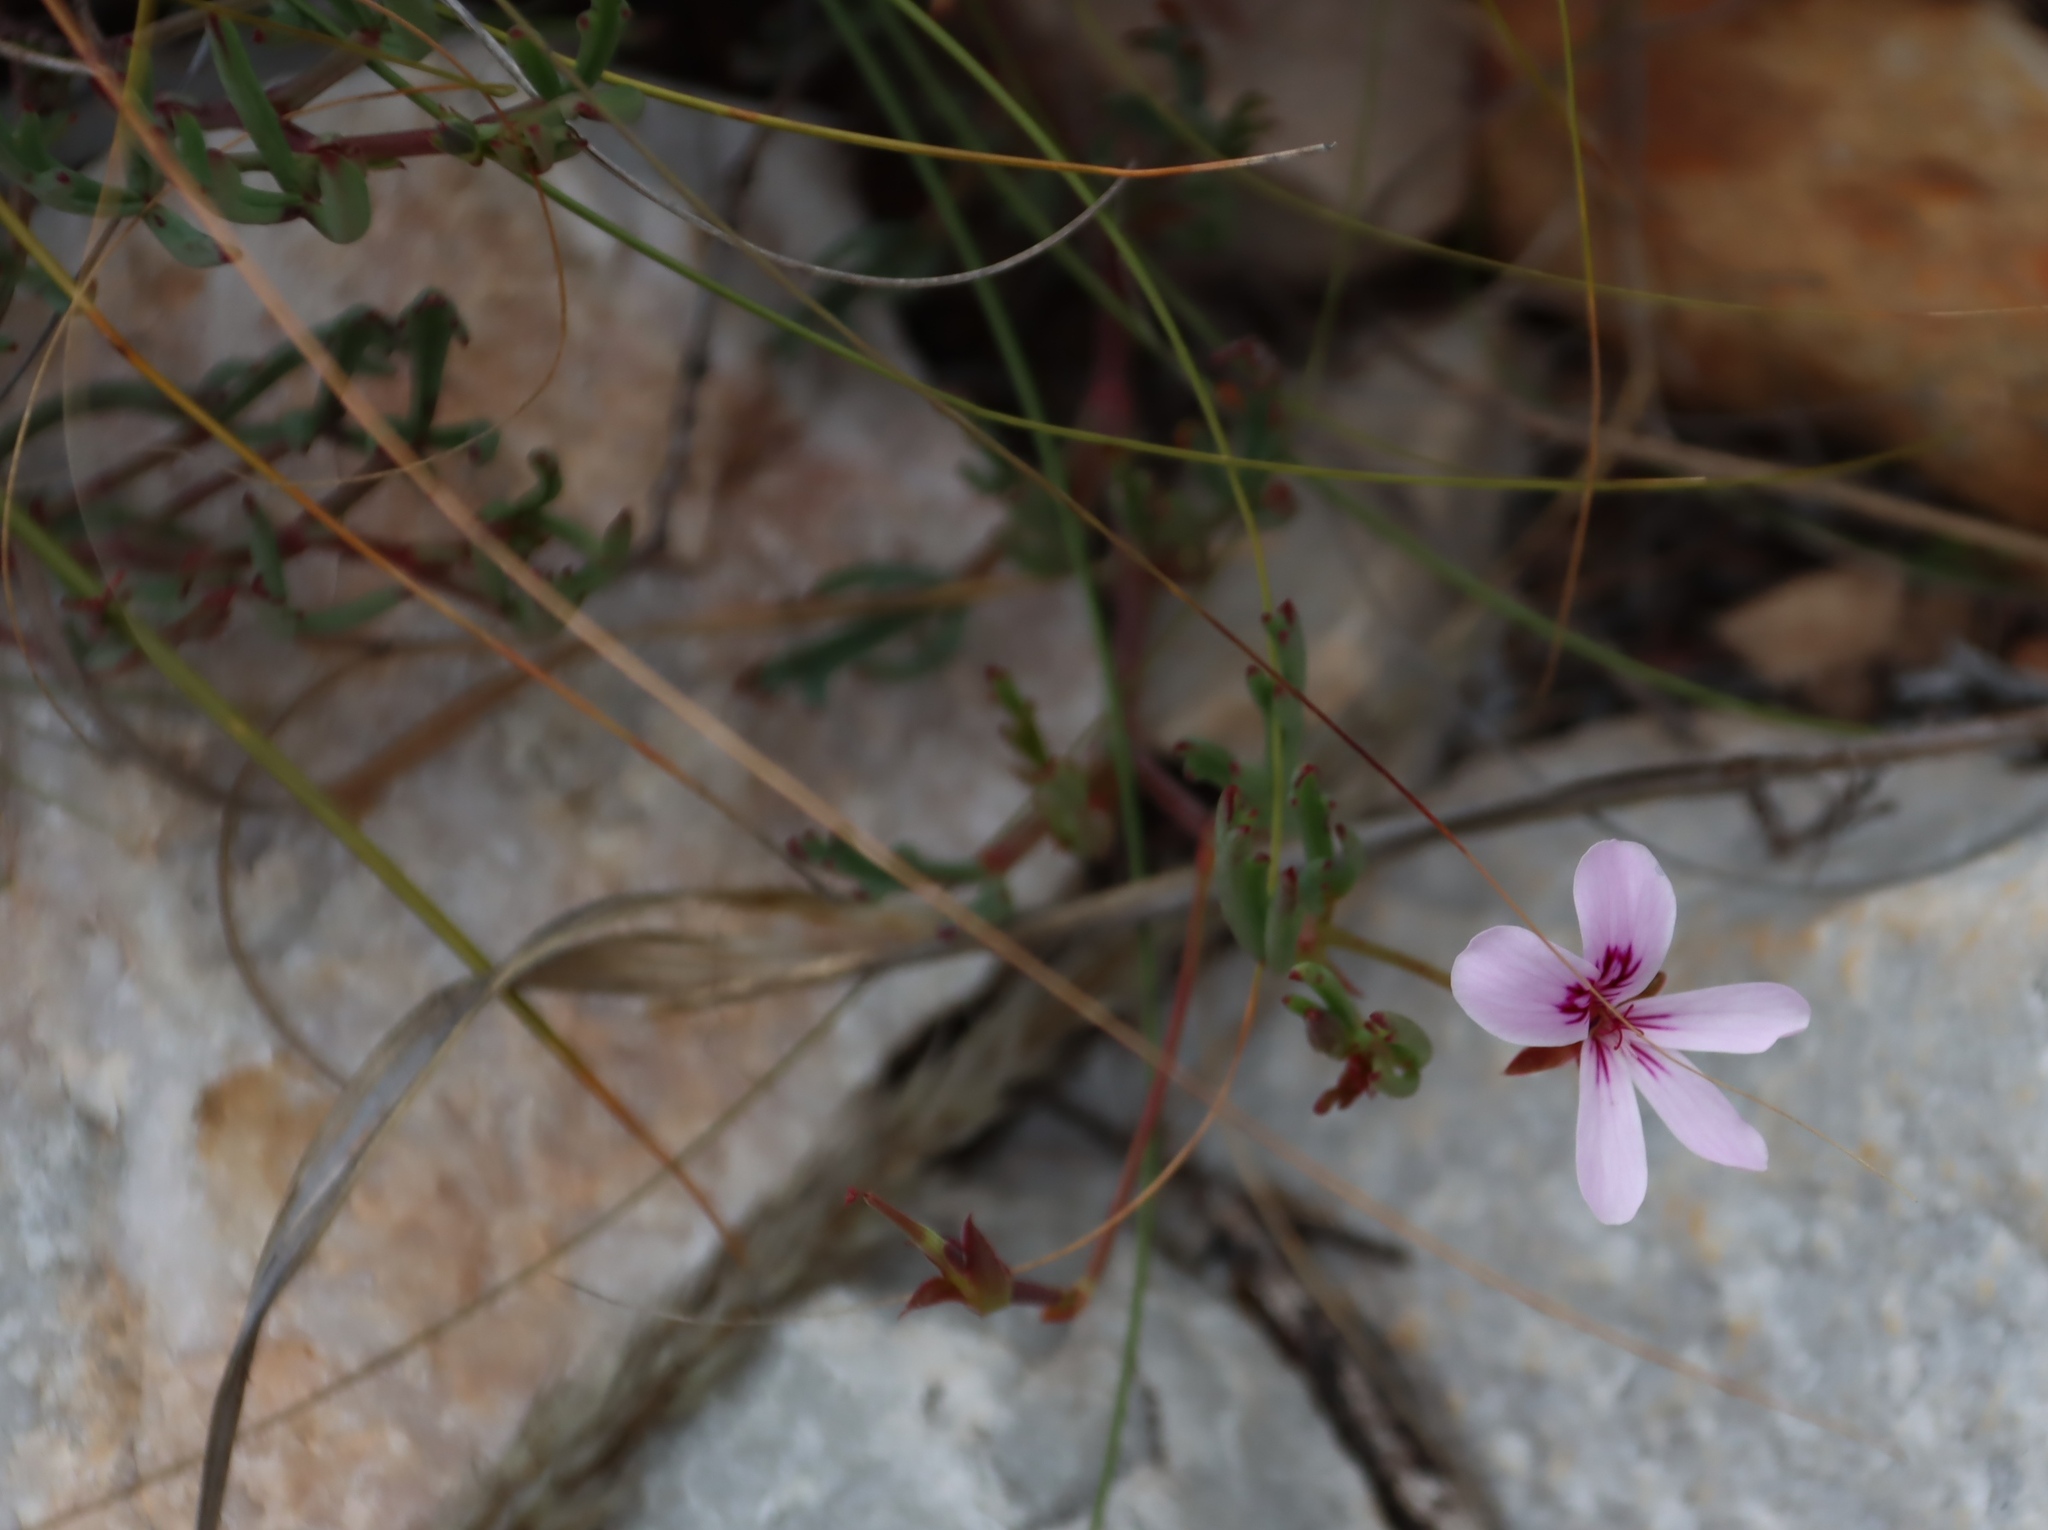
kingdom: Plantae
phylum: Tracheophyta
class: Magnoliopsida
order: Geraniales
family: Geraniaceae
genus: Pelargonium
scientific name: Pelargonium laevigatum
